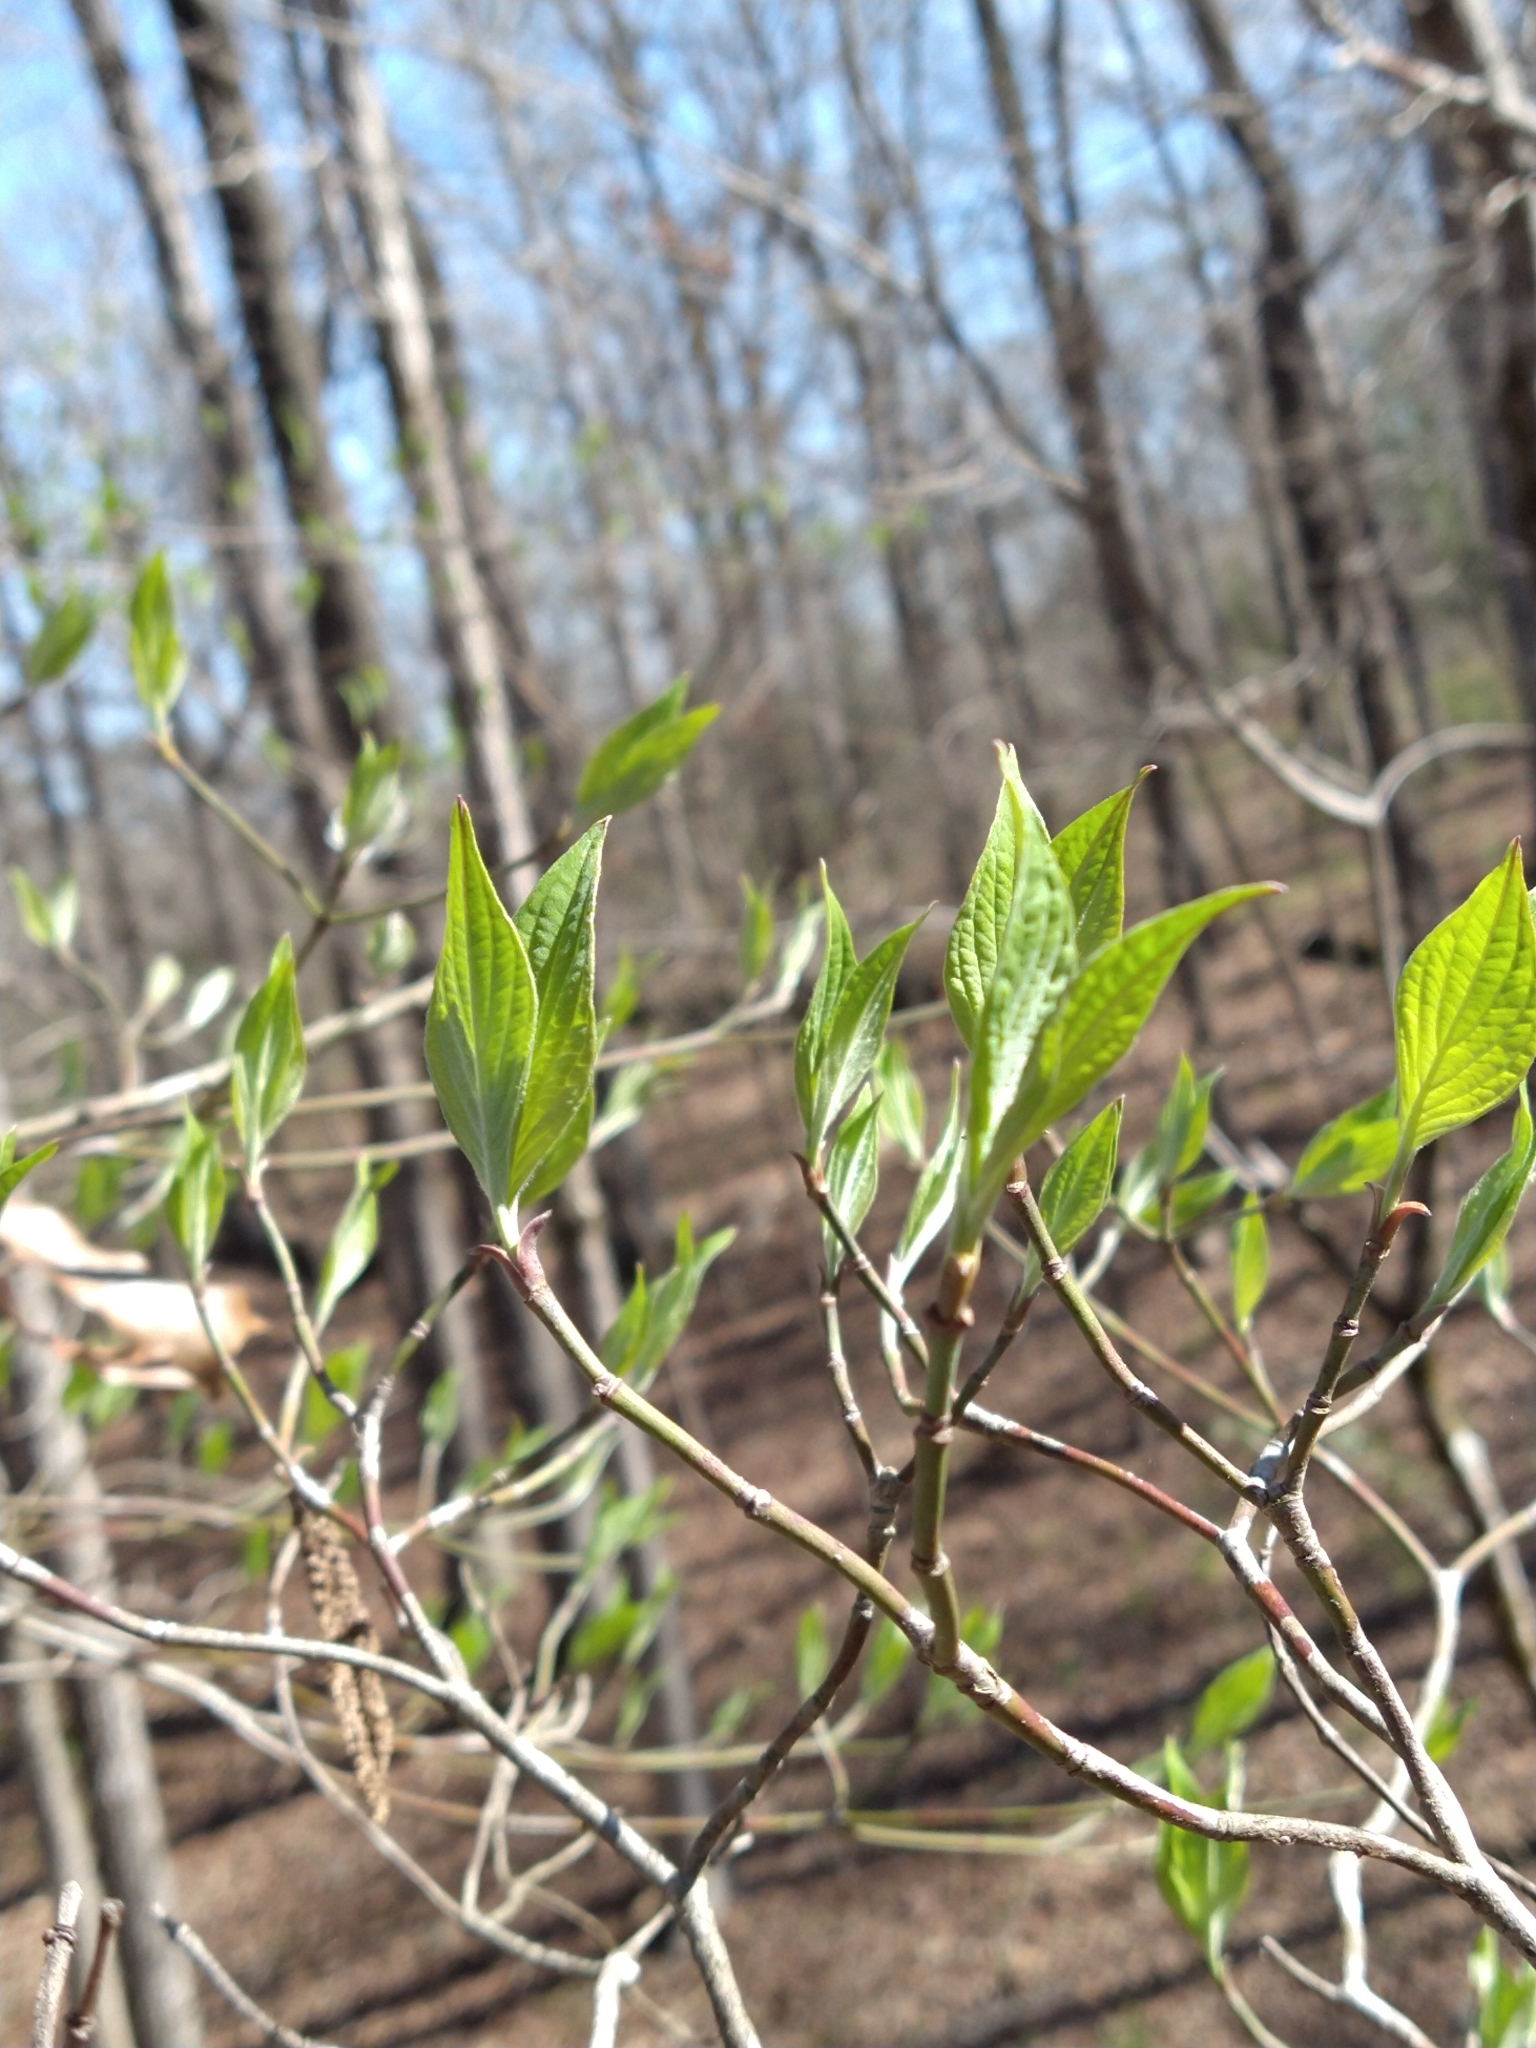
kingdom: Plantae
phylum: Tracheophyta
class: Magnoliopsida
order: Cornales
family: Cornaceae
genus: Cornus
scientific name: Cornus florida
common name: Flowering dogwood
